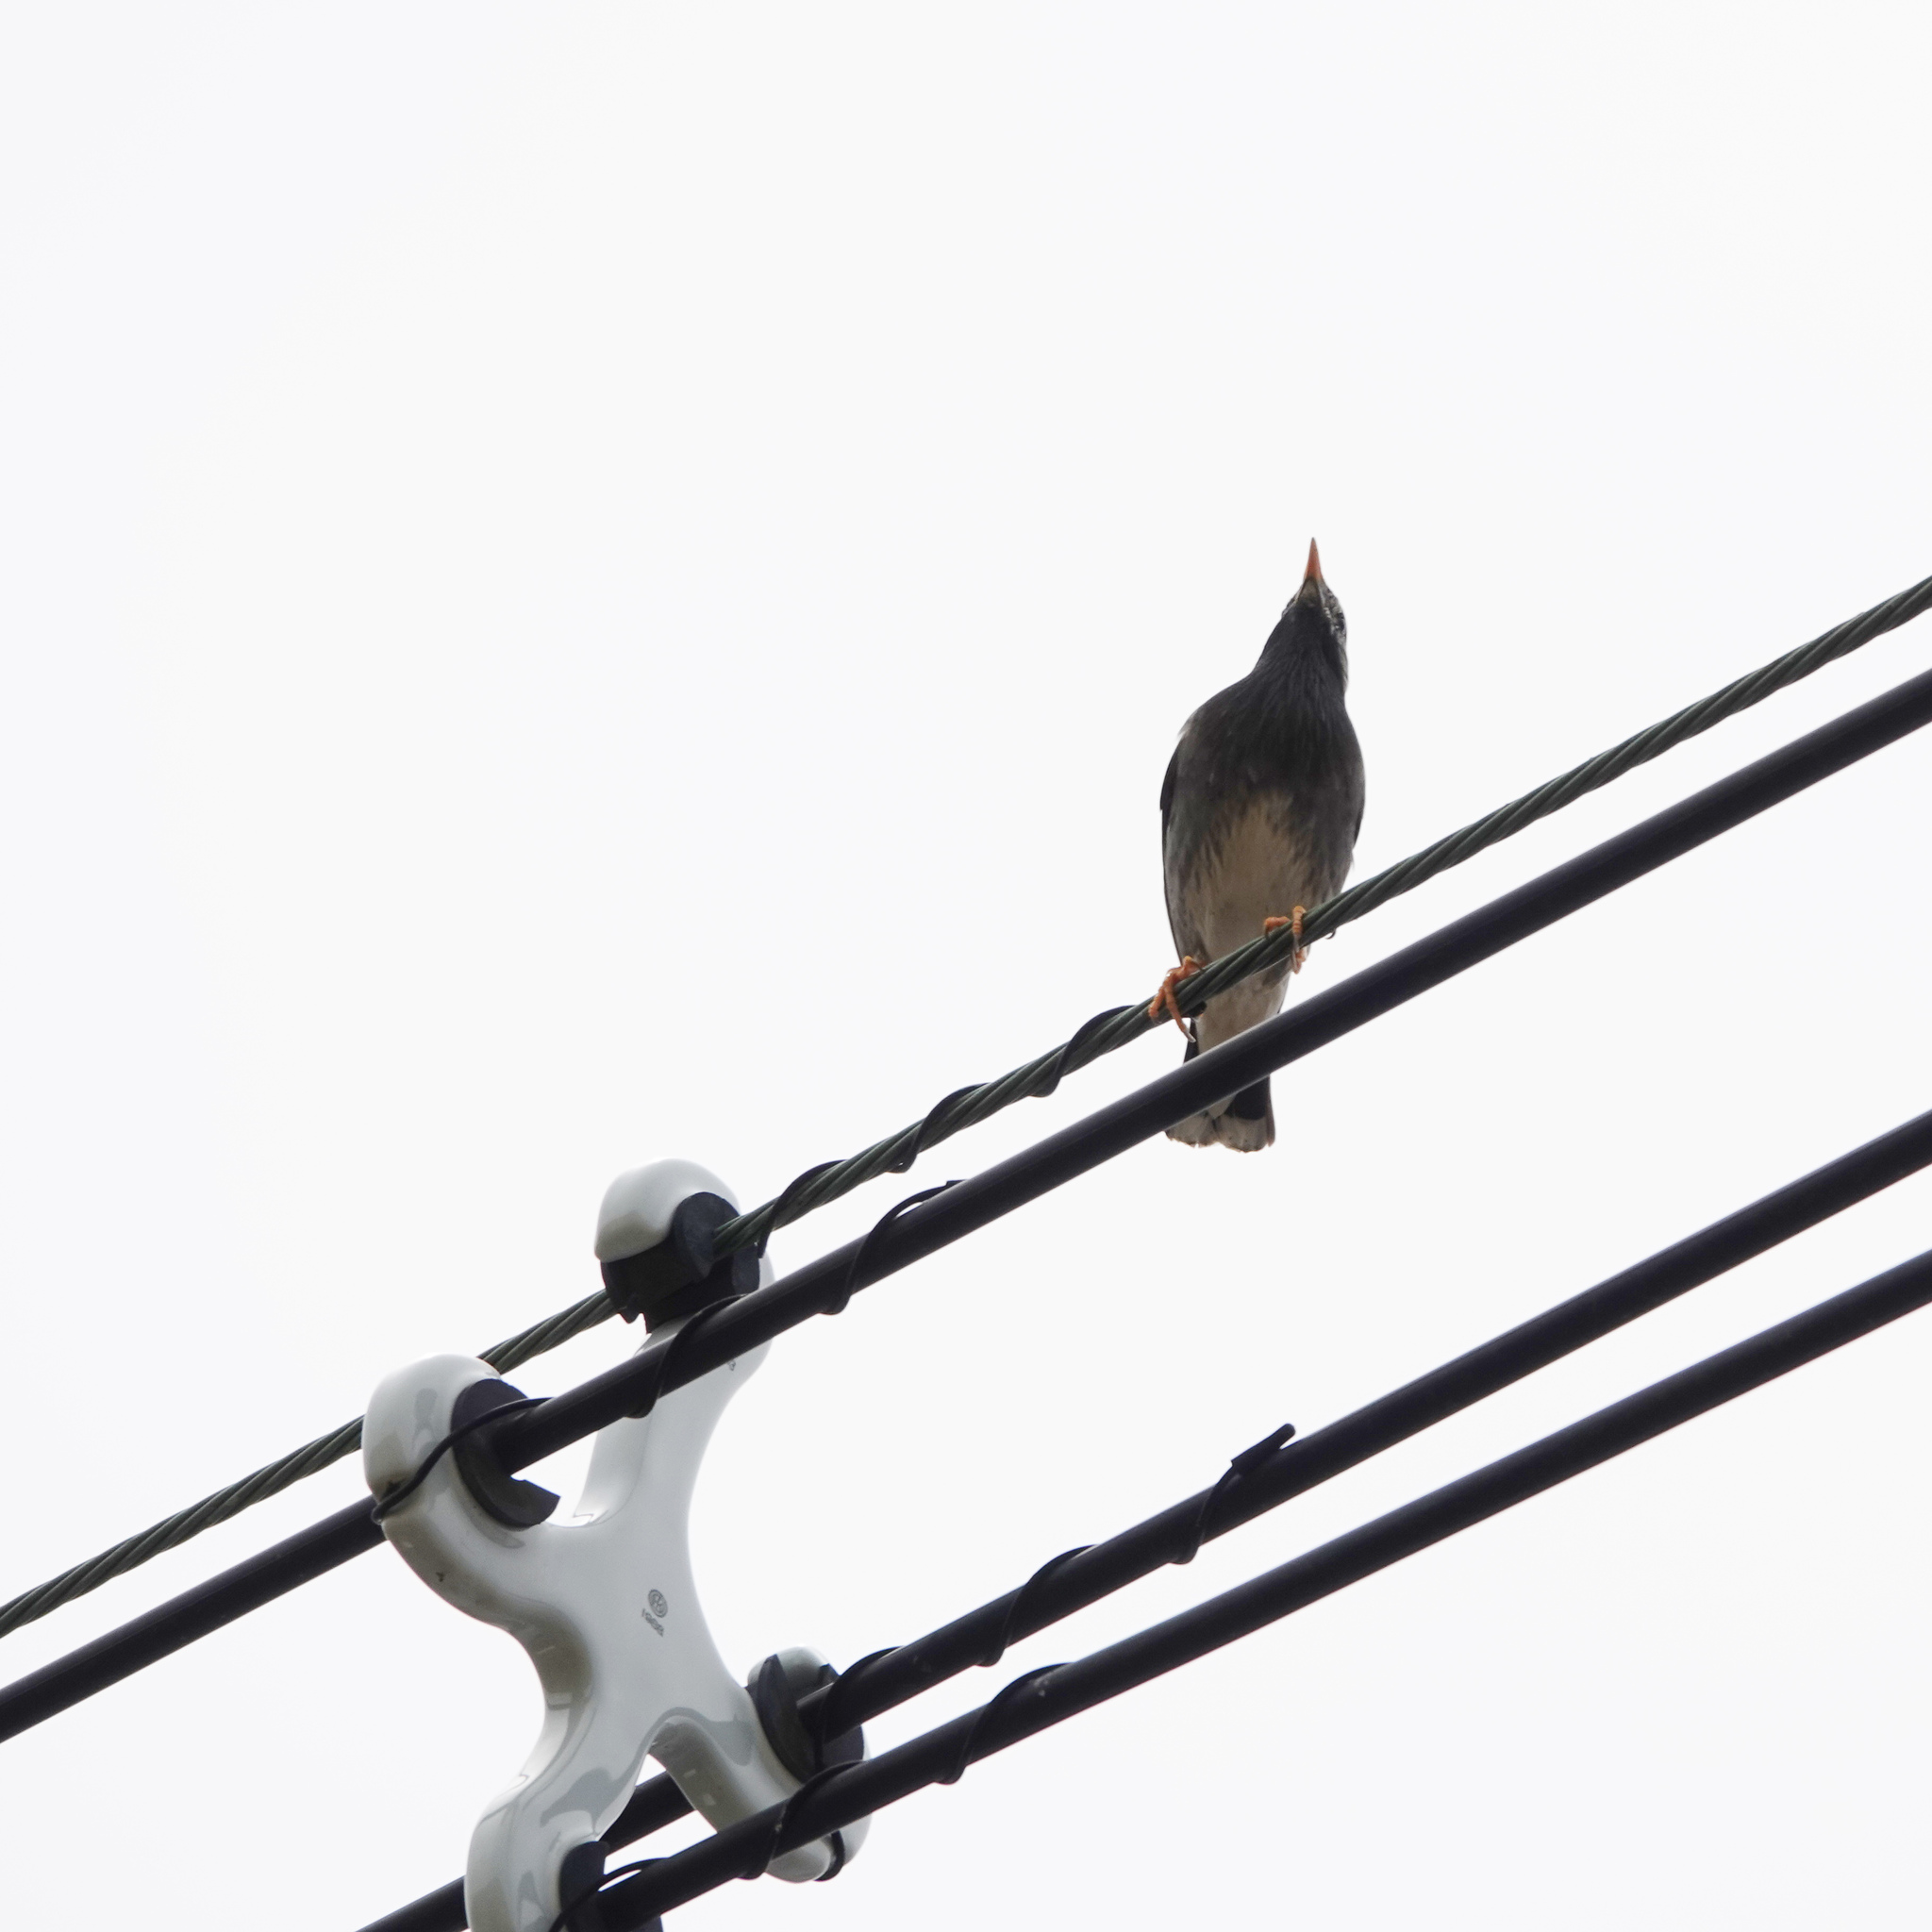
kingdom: Animalia
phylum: Chordata
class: Aves
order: Passeriformes
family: Sturnidae
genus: Spodiopsar
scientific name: Spodiopsar cineraceus
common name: White-cheeked starling
